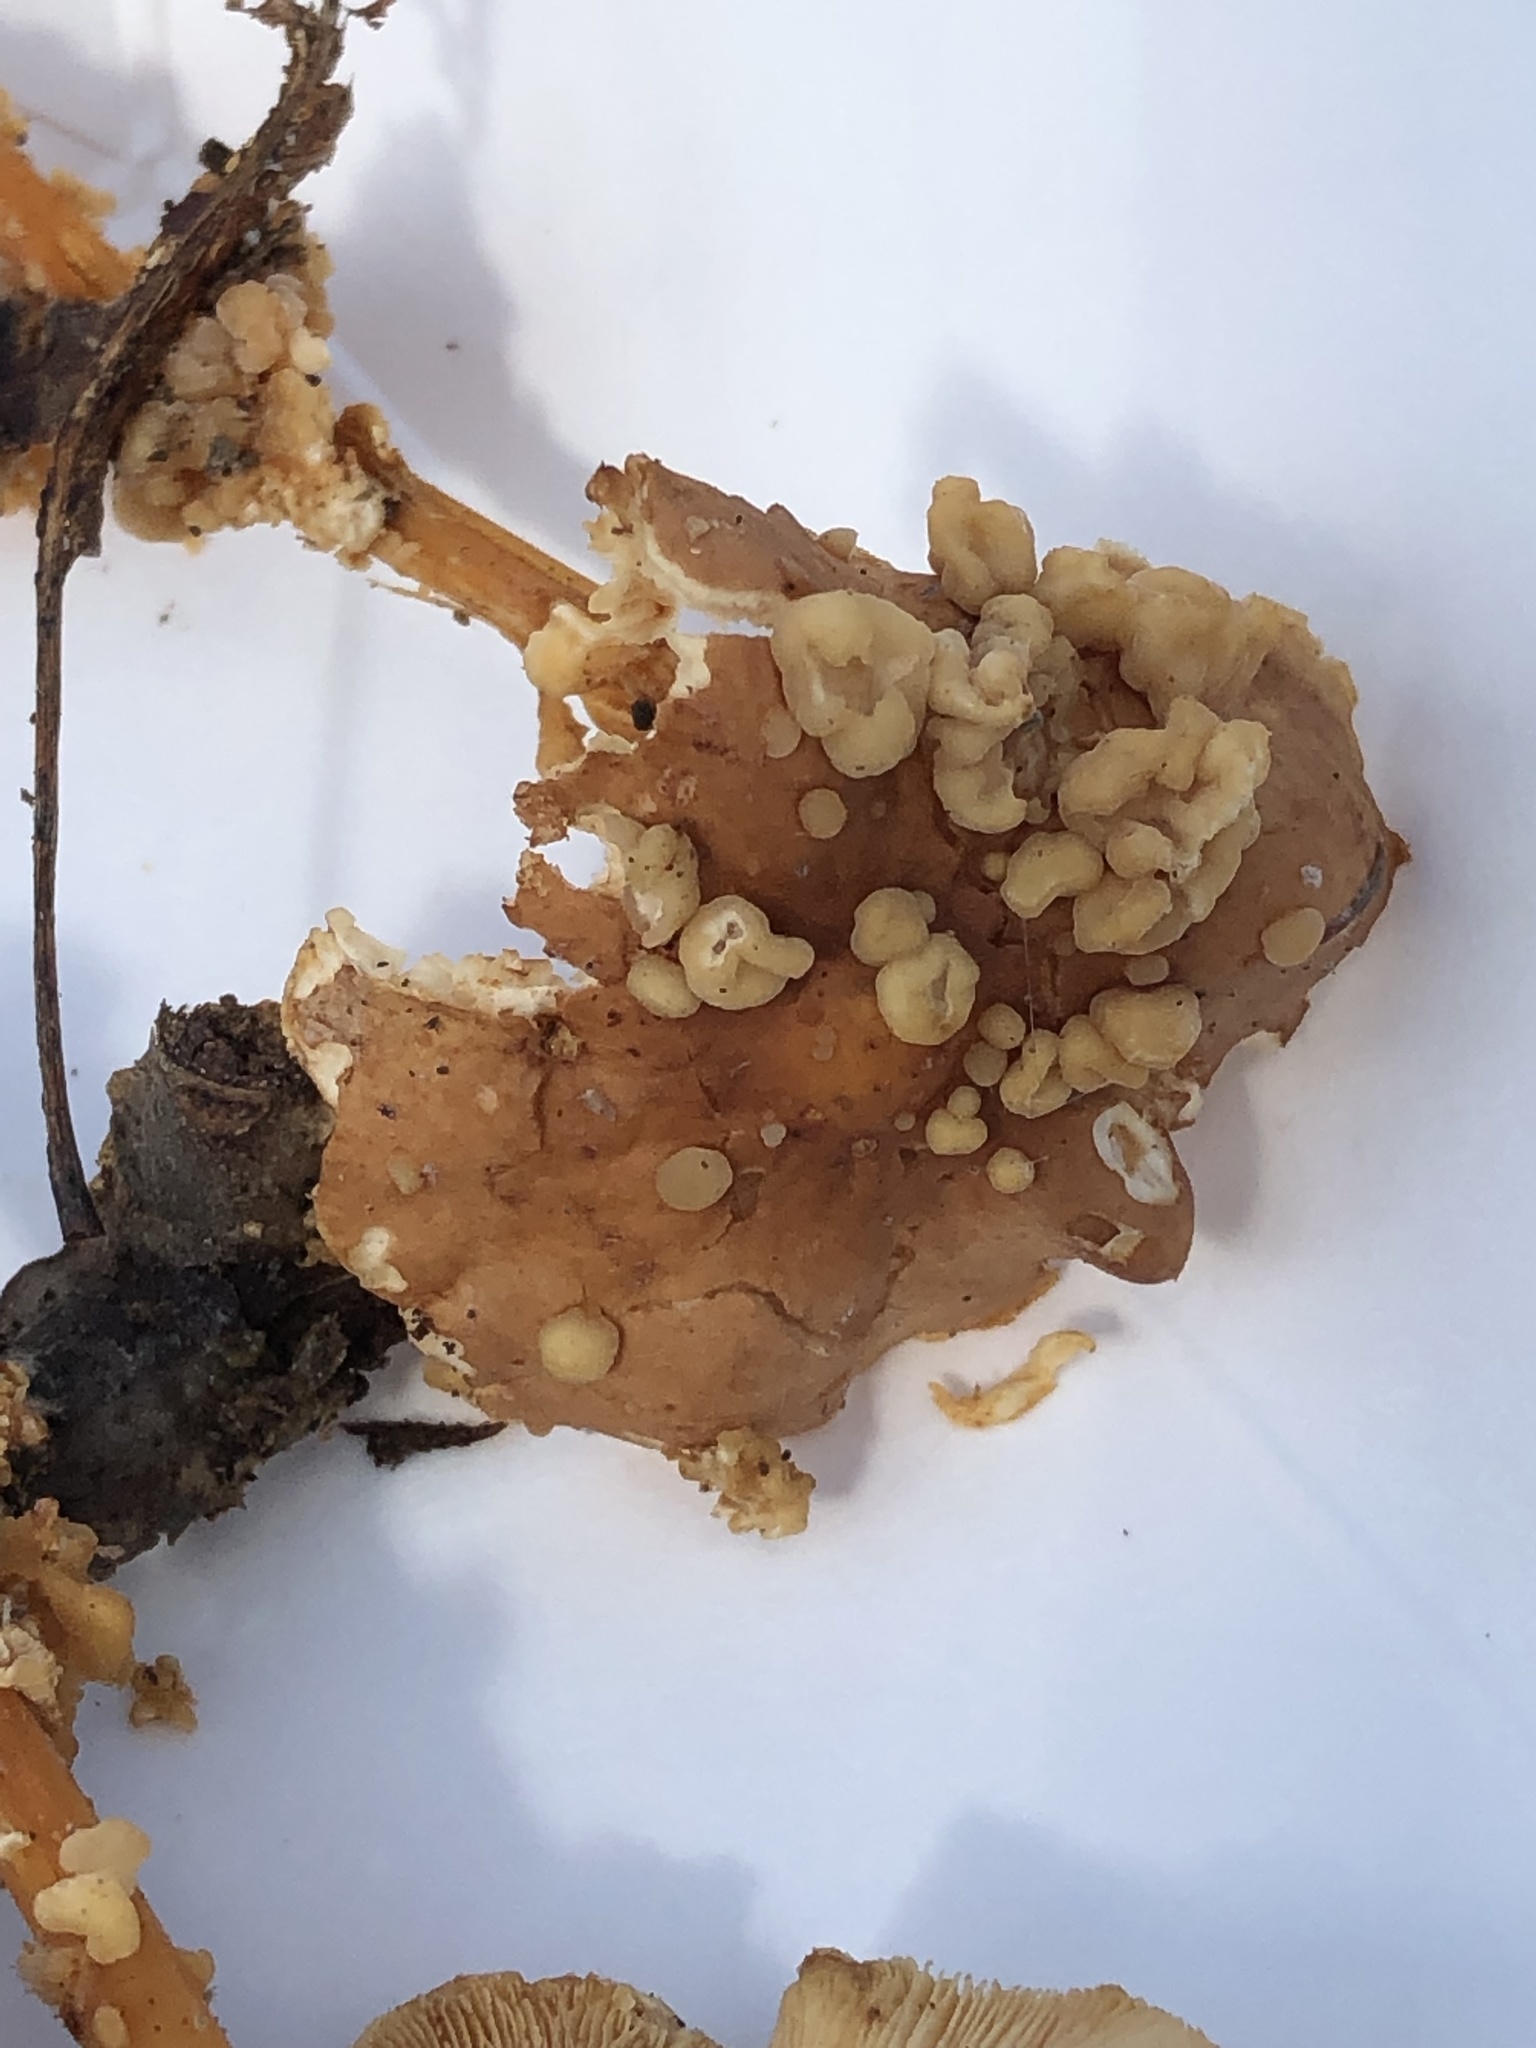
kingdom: Fungi
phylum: Basidiomycota
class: Tremellomycetes
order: Filobasidiales
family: Filobasidiaceae
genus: Syzygospora
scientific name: Syzygospora mycetophila
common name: Collybia clouds
